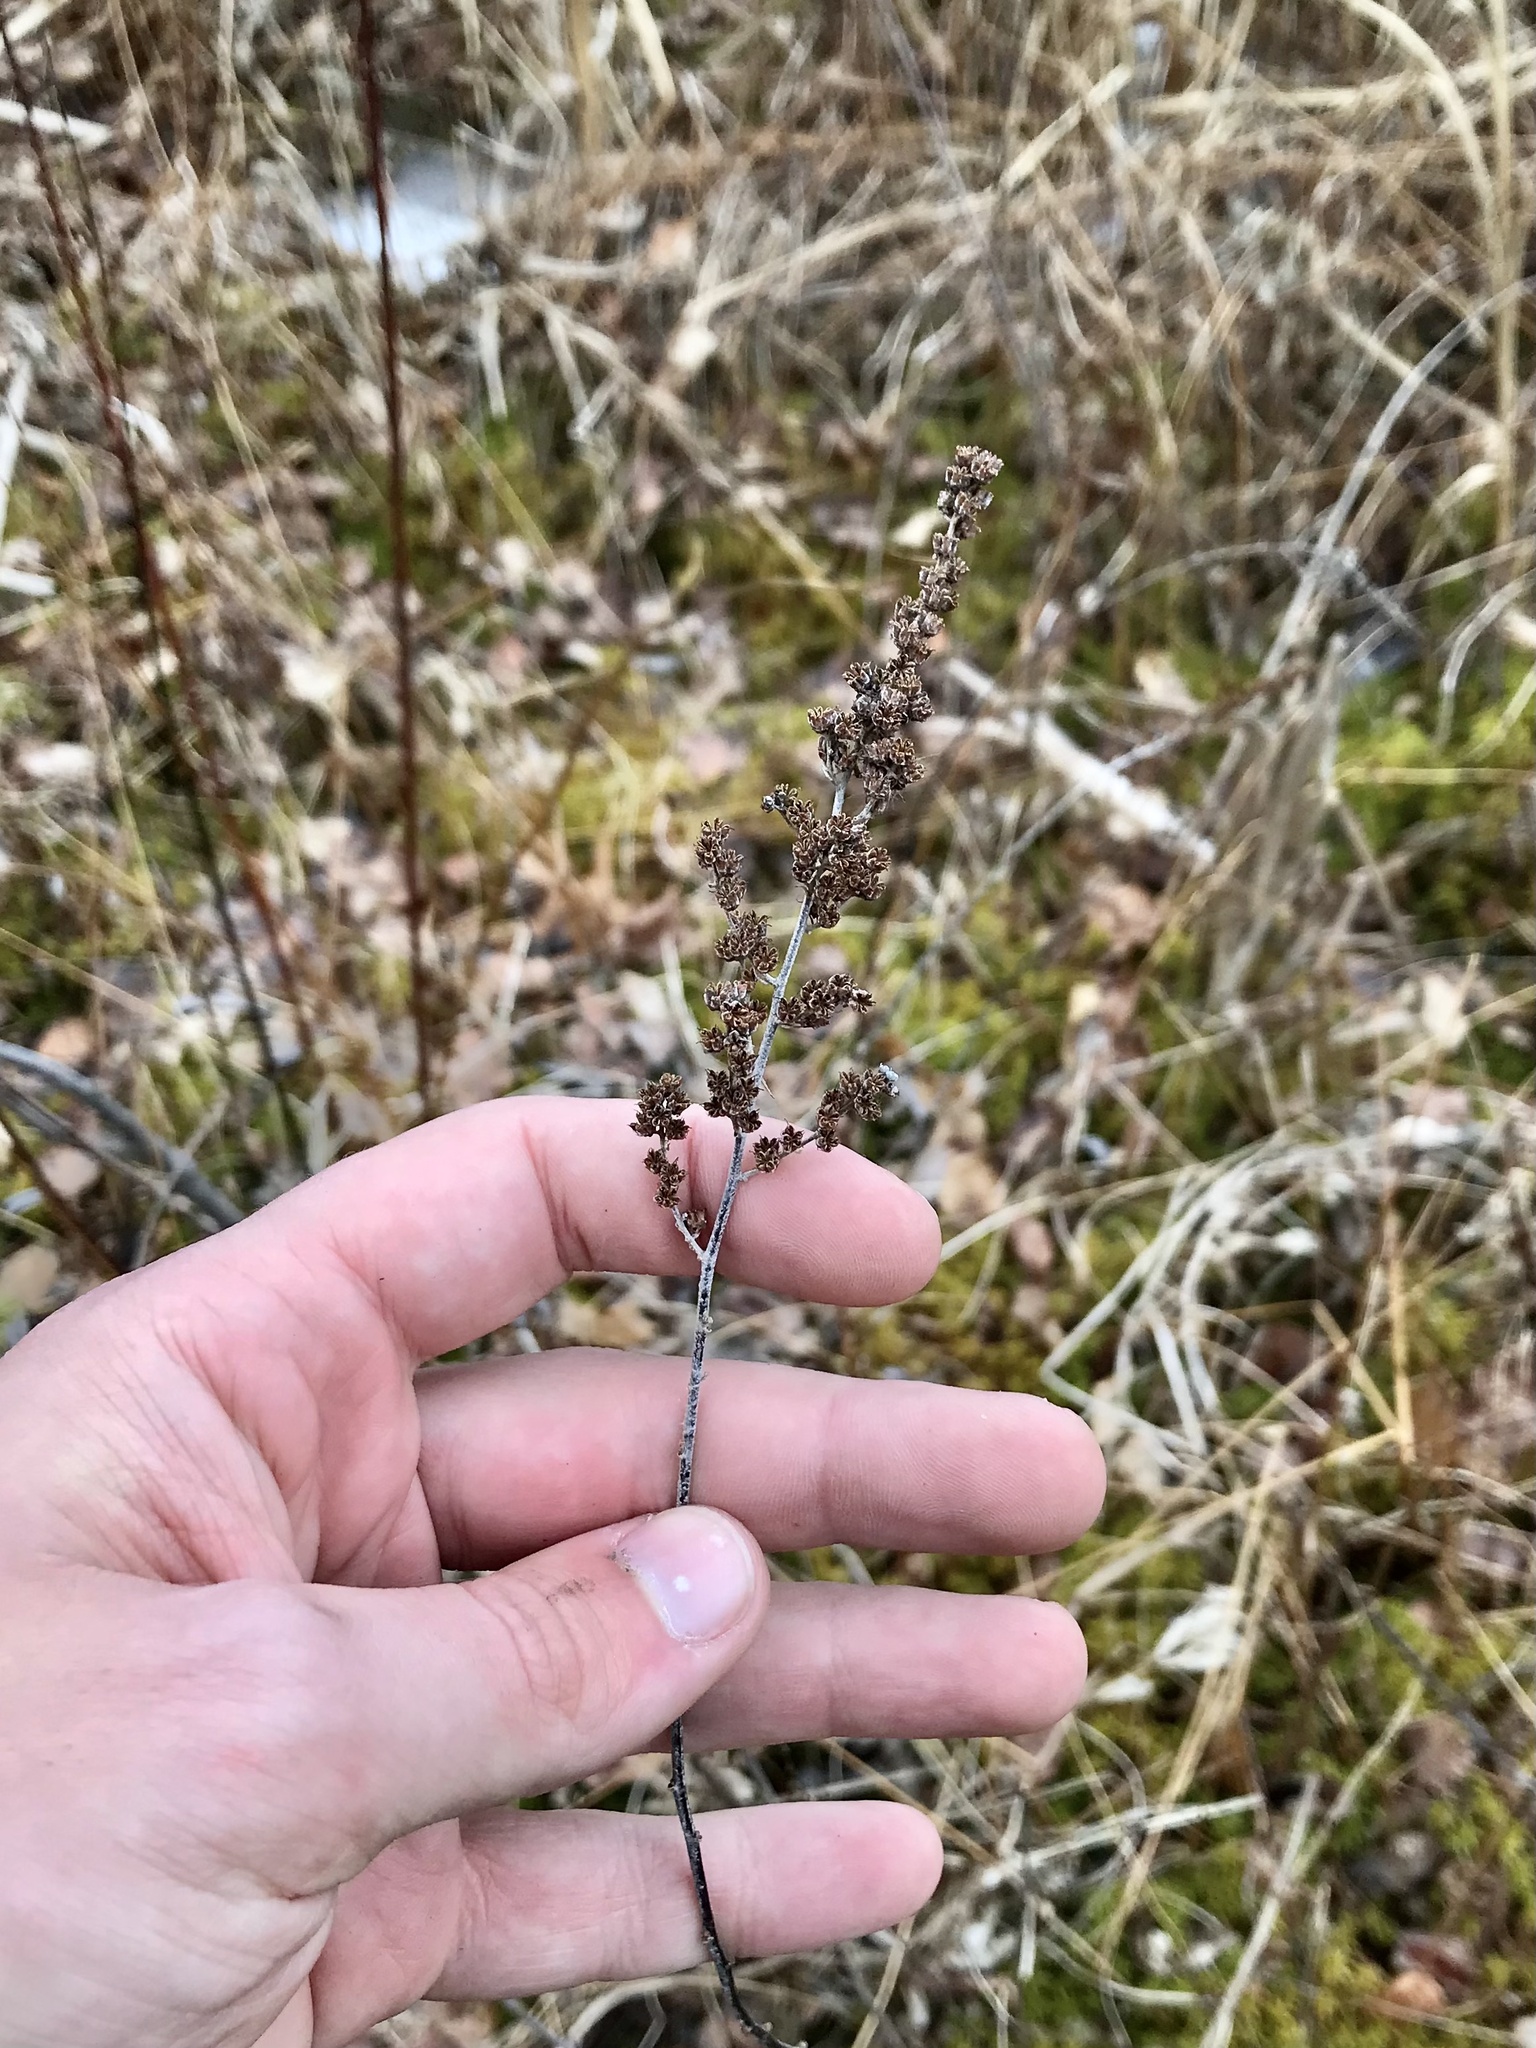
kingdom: Plantae
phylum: Tracheophyta
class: Magnoliopsida
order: Rosales
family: Rosaceae
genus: Spiraea
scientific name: Spiraea tomentosa
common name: Hardhack
